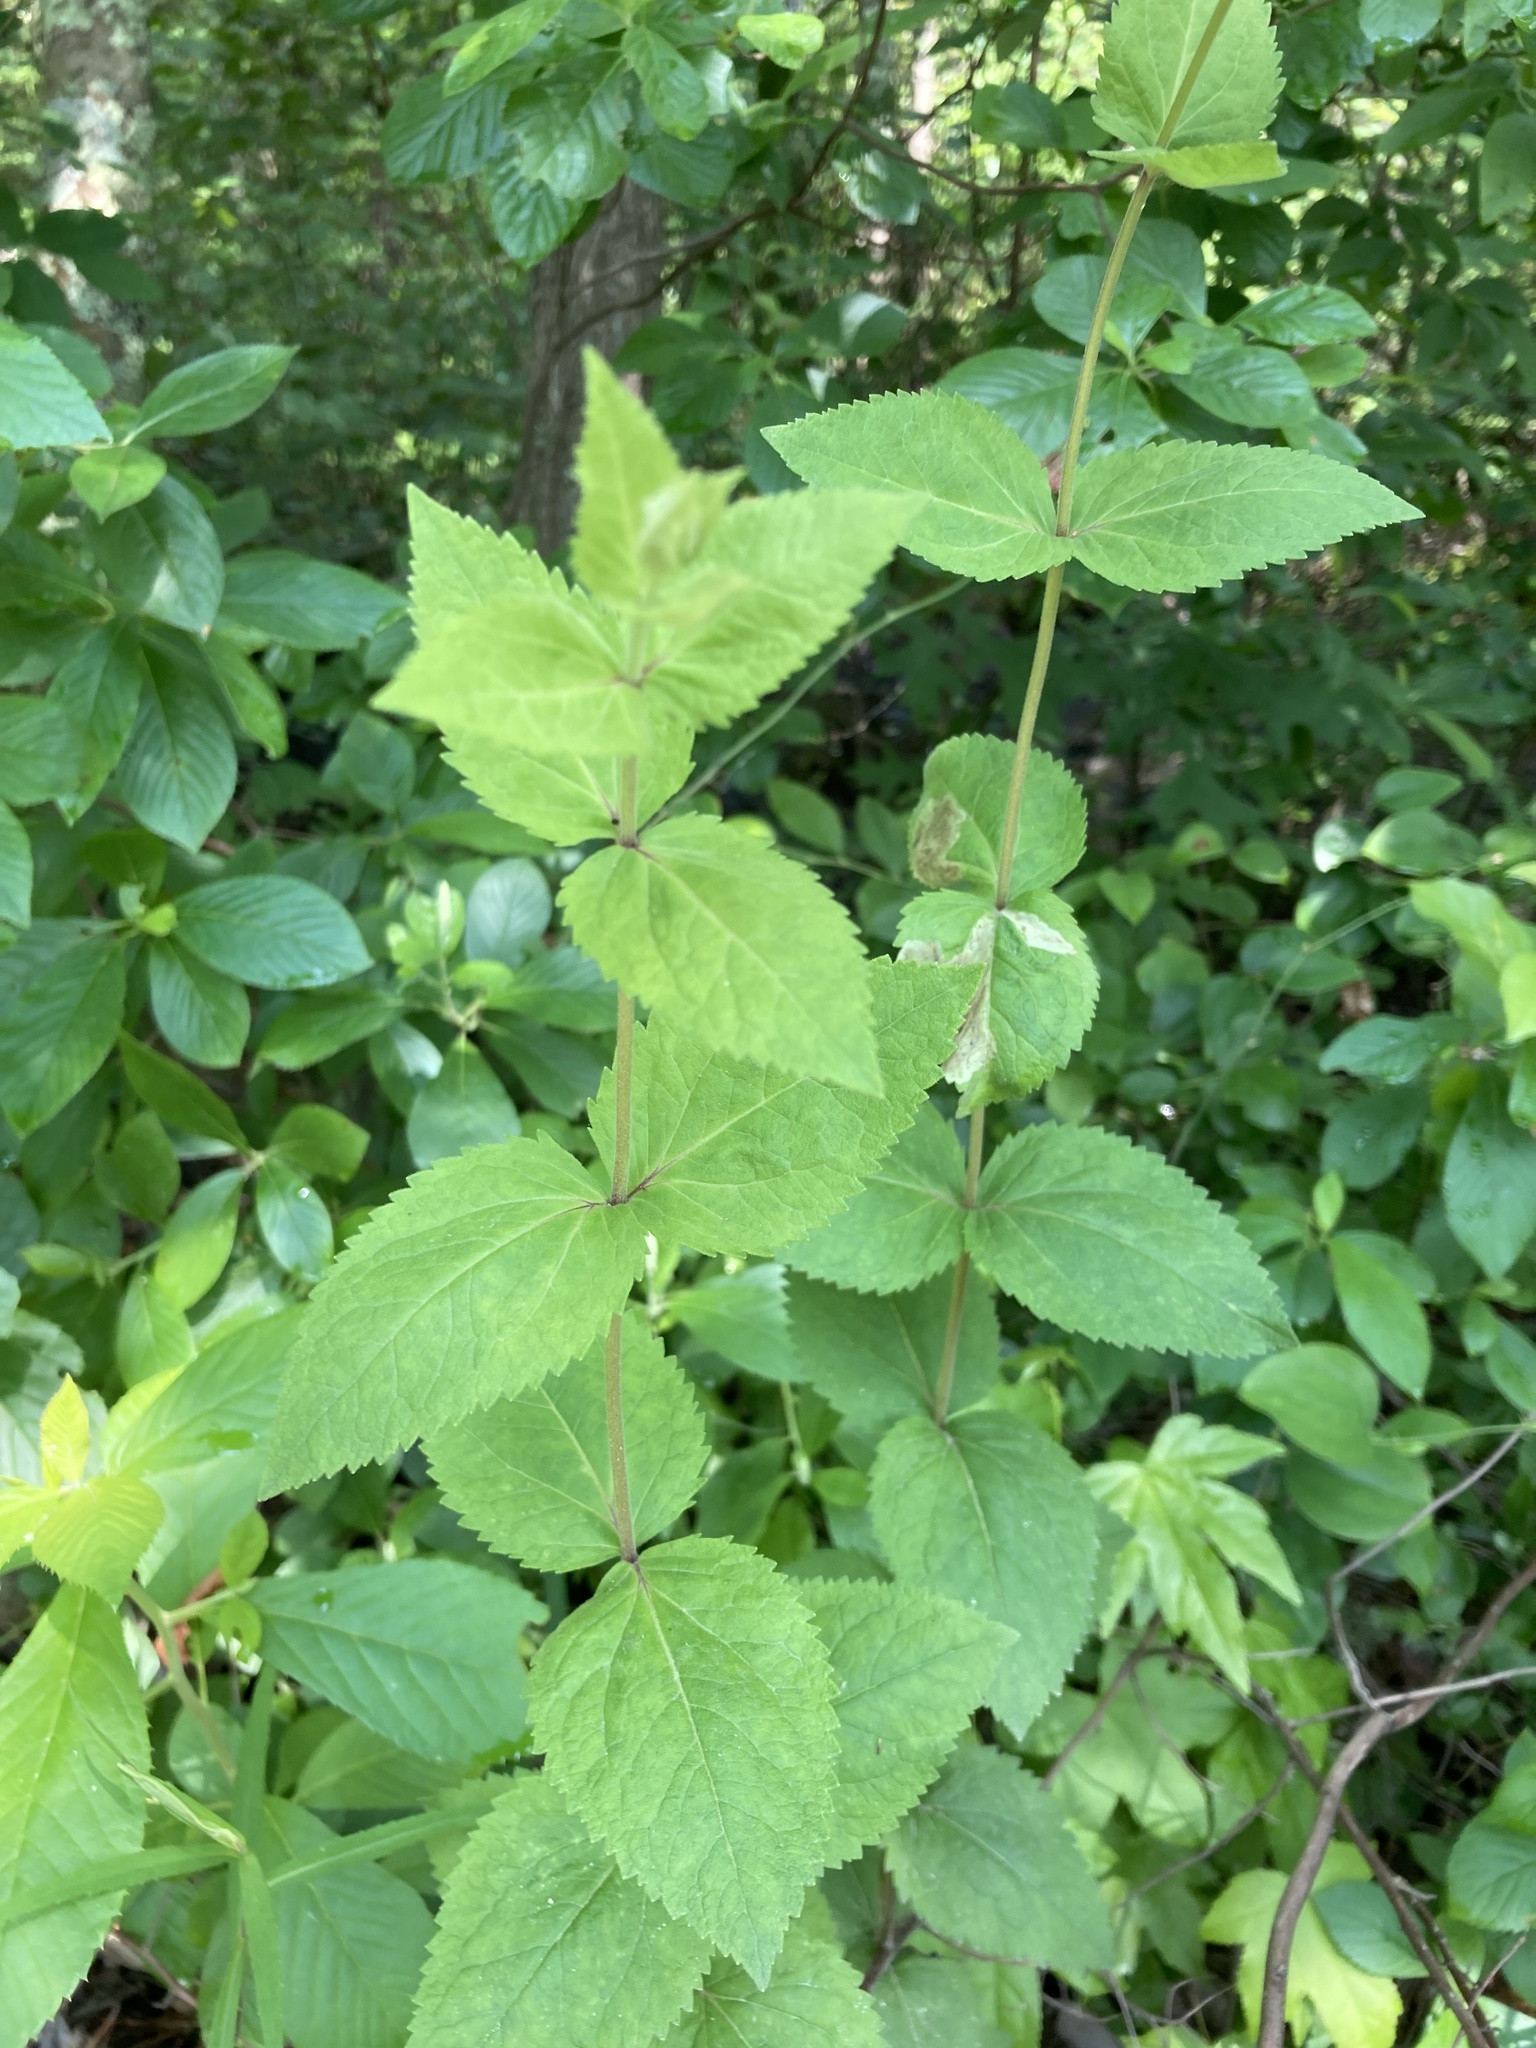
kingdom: Plantae
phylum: Tracheophyta
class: Magnoliopsida
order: Asterales
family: Asteraceae
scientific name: Asteraceae
